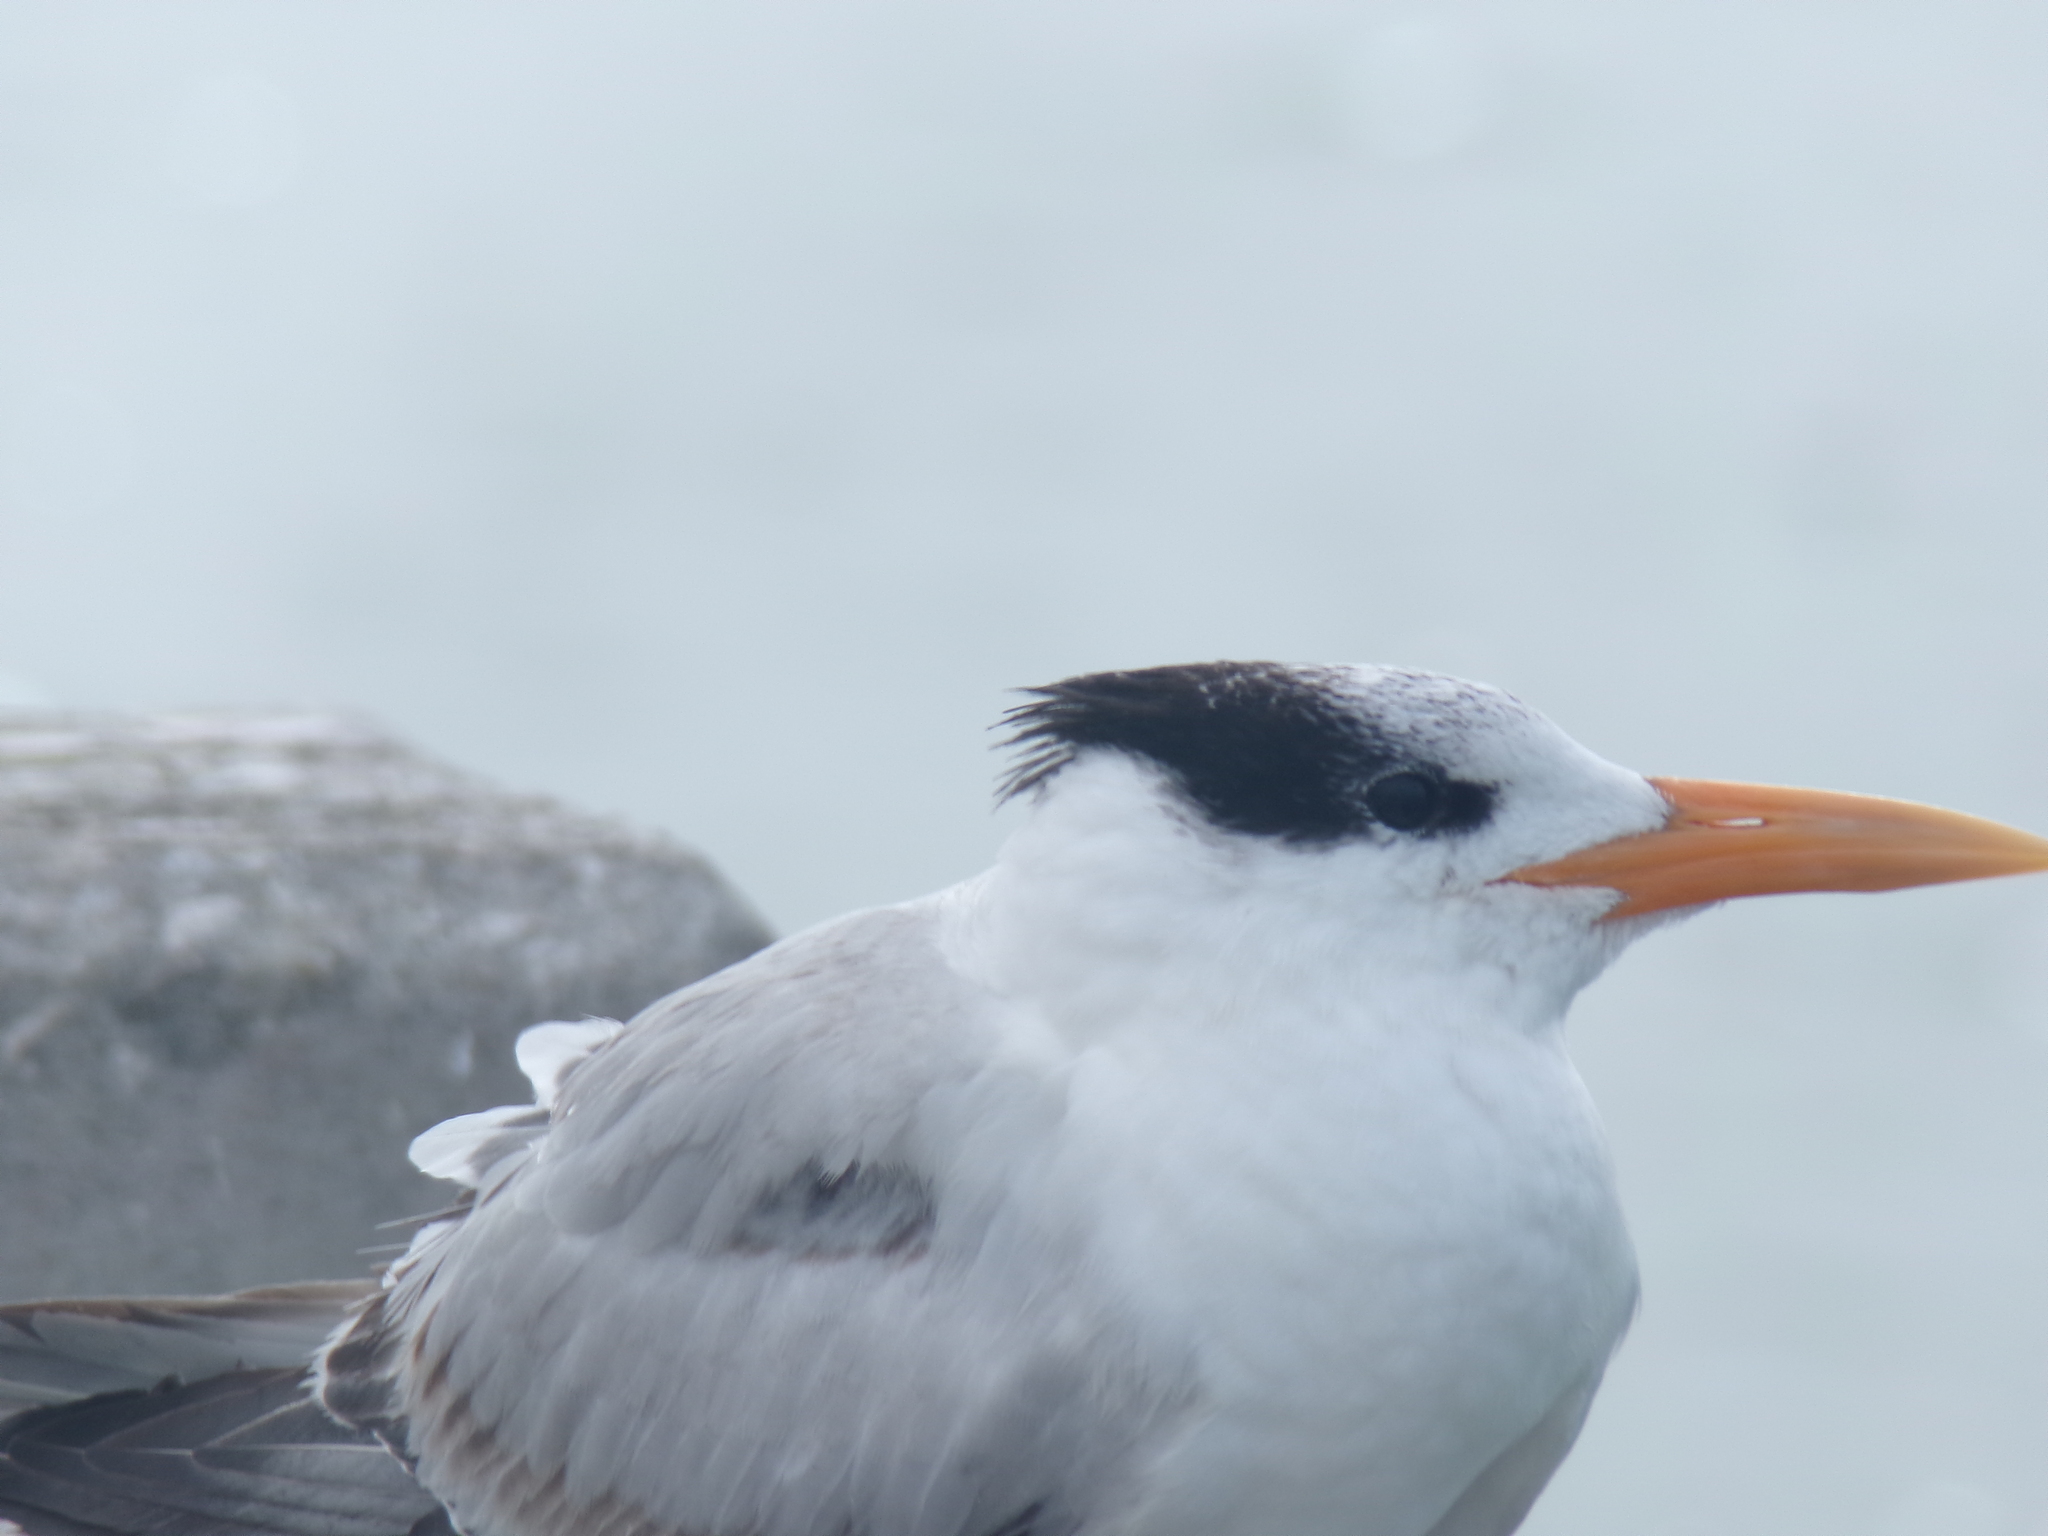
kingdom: Animalia
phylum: Chordata
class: Aves
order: Charadriiformes
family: Laridae
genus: Thalasseus
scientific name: Thalasseus maximus
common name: Royal tern
